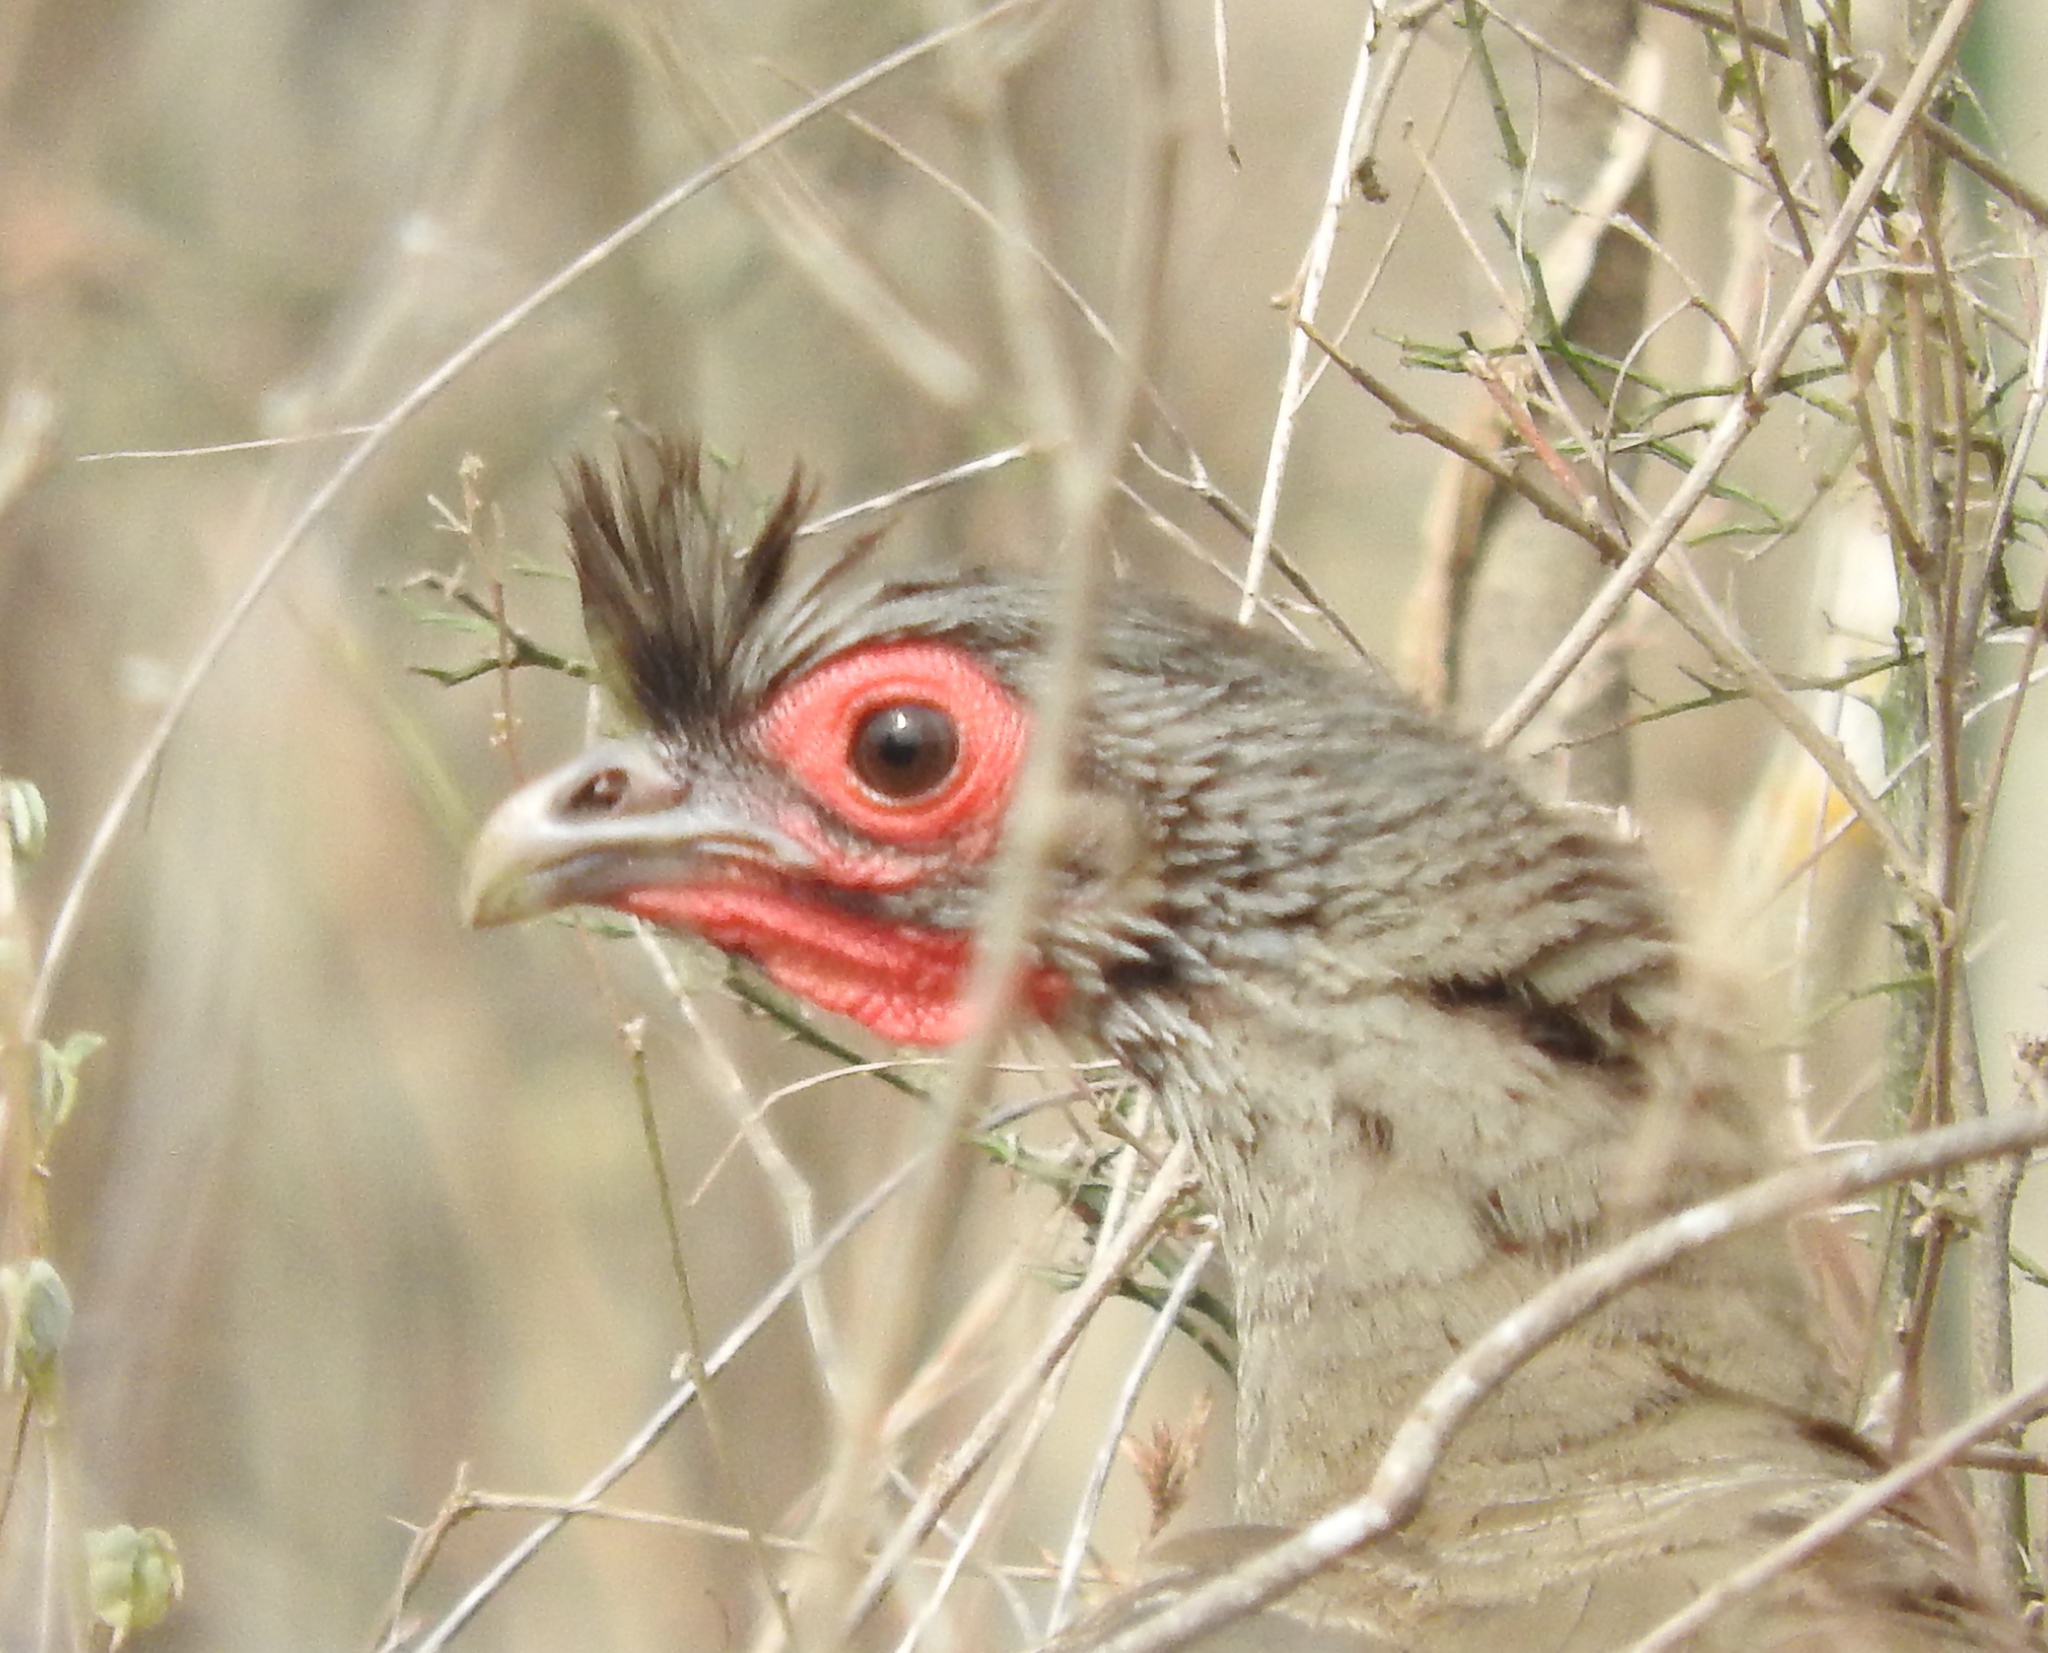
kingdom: Animalia
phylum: Chordata
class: Aves
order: Galliformes
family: Cracidae
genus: Ortalis
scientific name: Ortalis wagleri
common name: Rufous-bellied chachalaca
